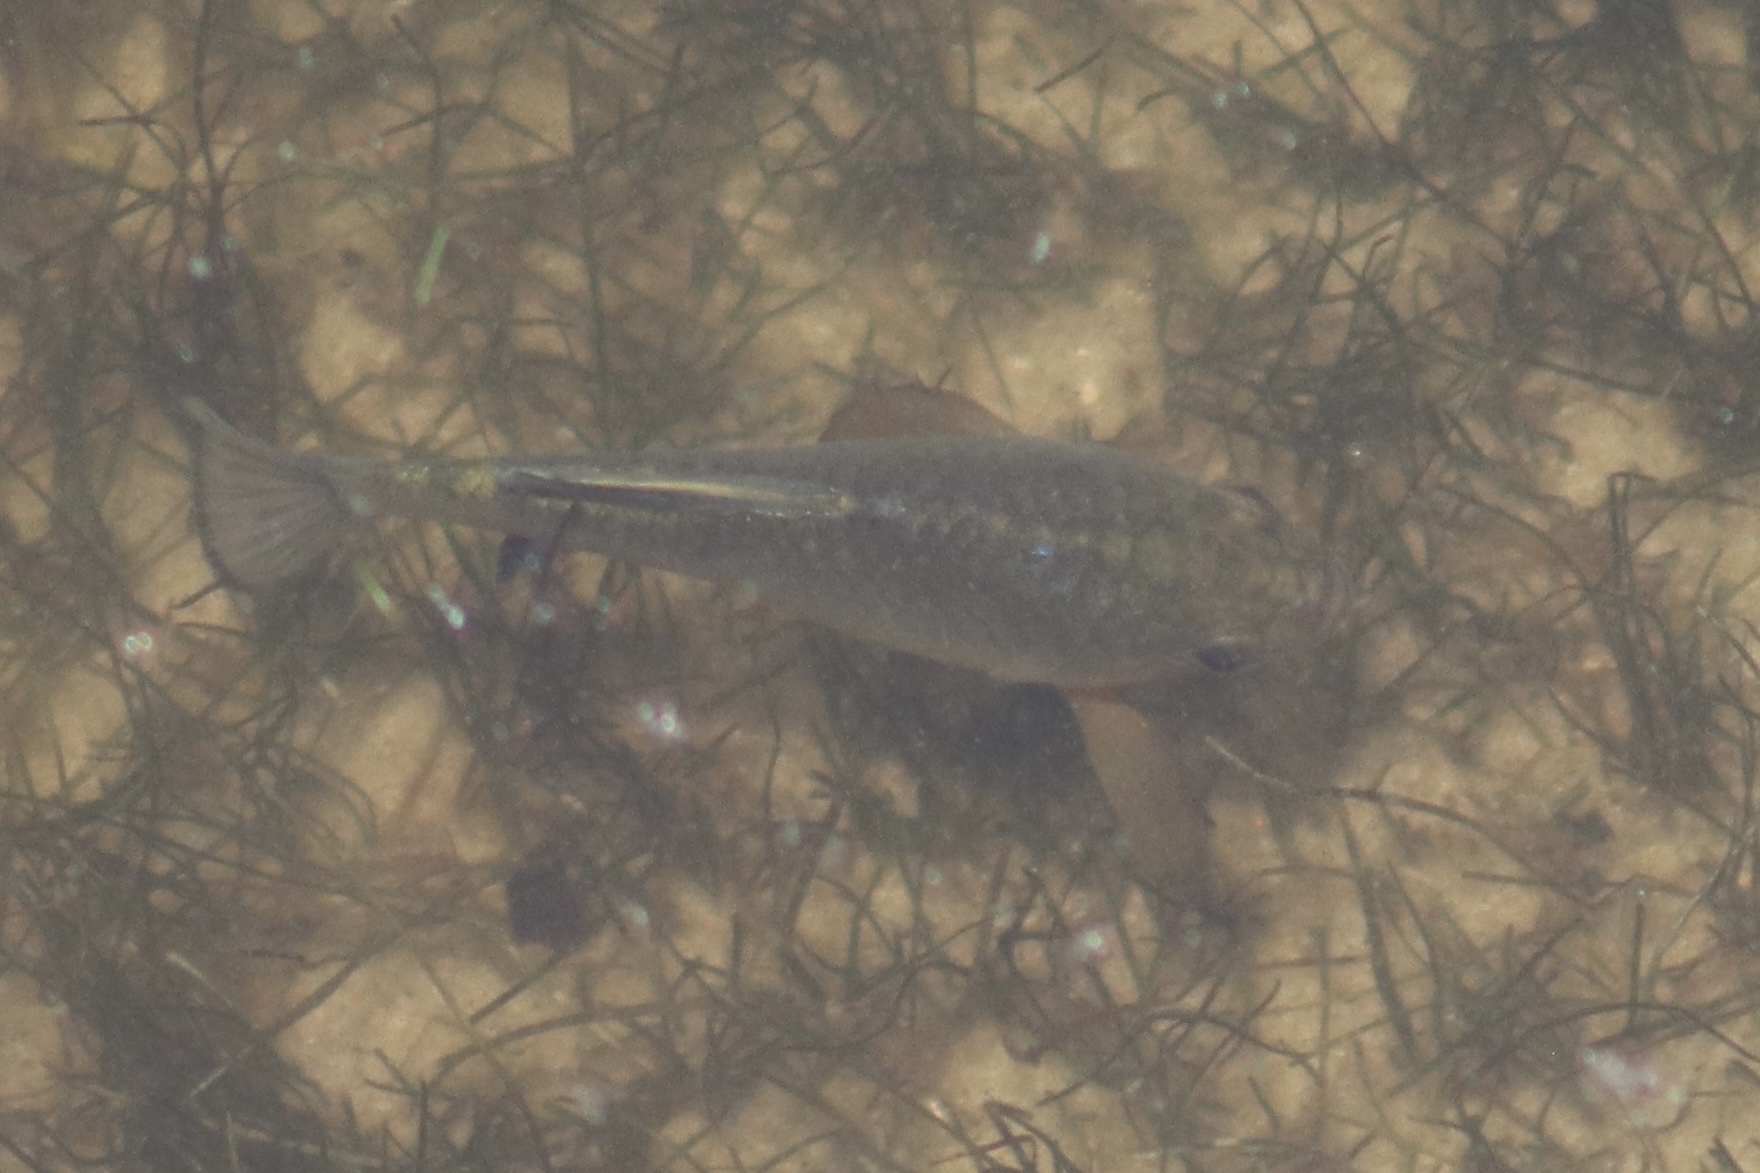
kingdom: Animalia
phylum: Chordata
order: Cyprinodontiformes
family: Cyprinodontidae
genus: Cyprinodon
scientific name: Cyprinodon variegatus
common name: Sheepshead minnow
